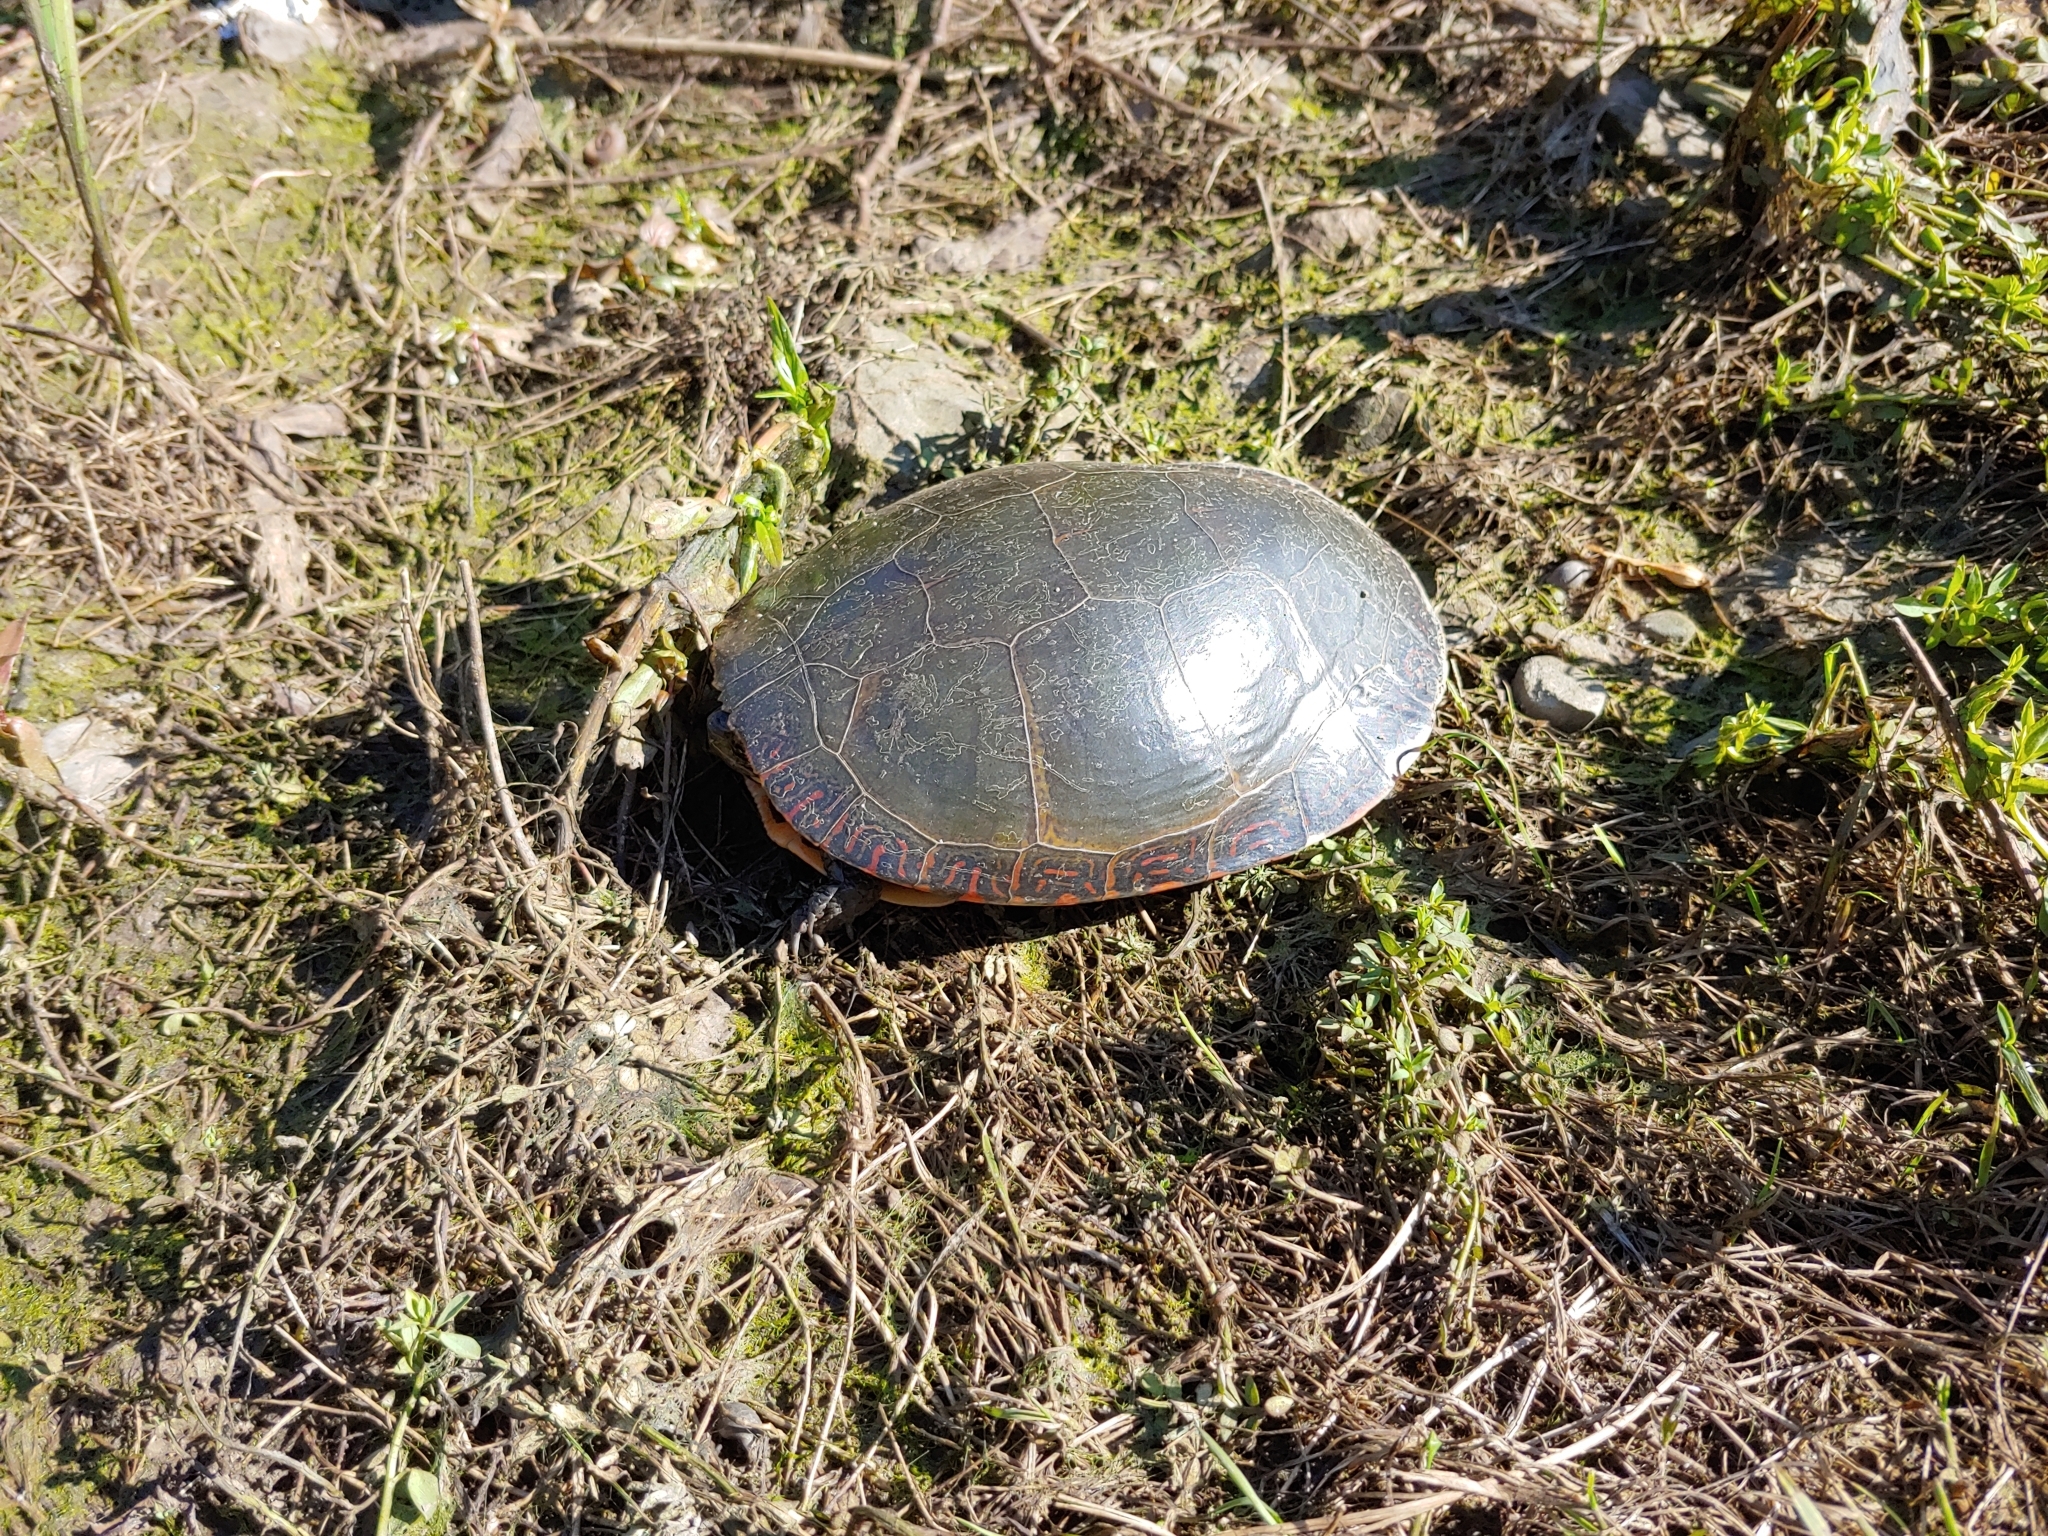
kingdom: Animalia
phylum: Chordata
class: Testudines
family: Emydidae
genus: Chrysemys
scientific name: Chrysemys picta
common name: Painted turtle
